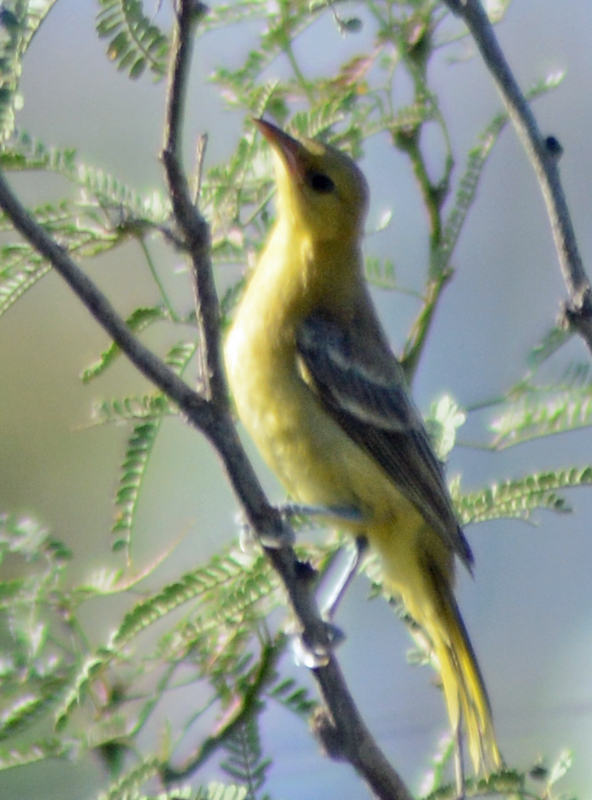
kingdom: Animalia
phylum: Chordata
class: Aves
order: Passeriformes
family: Icteridae
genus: Icterus
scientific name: Icterus cucullatus
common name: Hooded oriole
